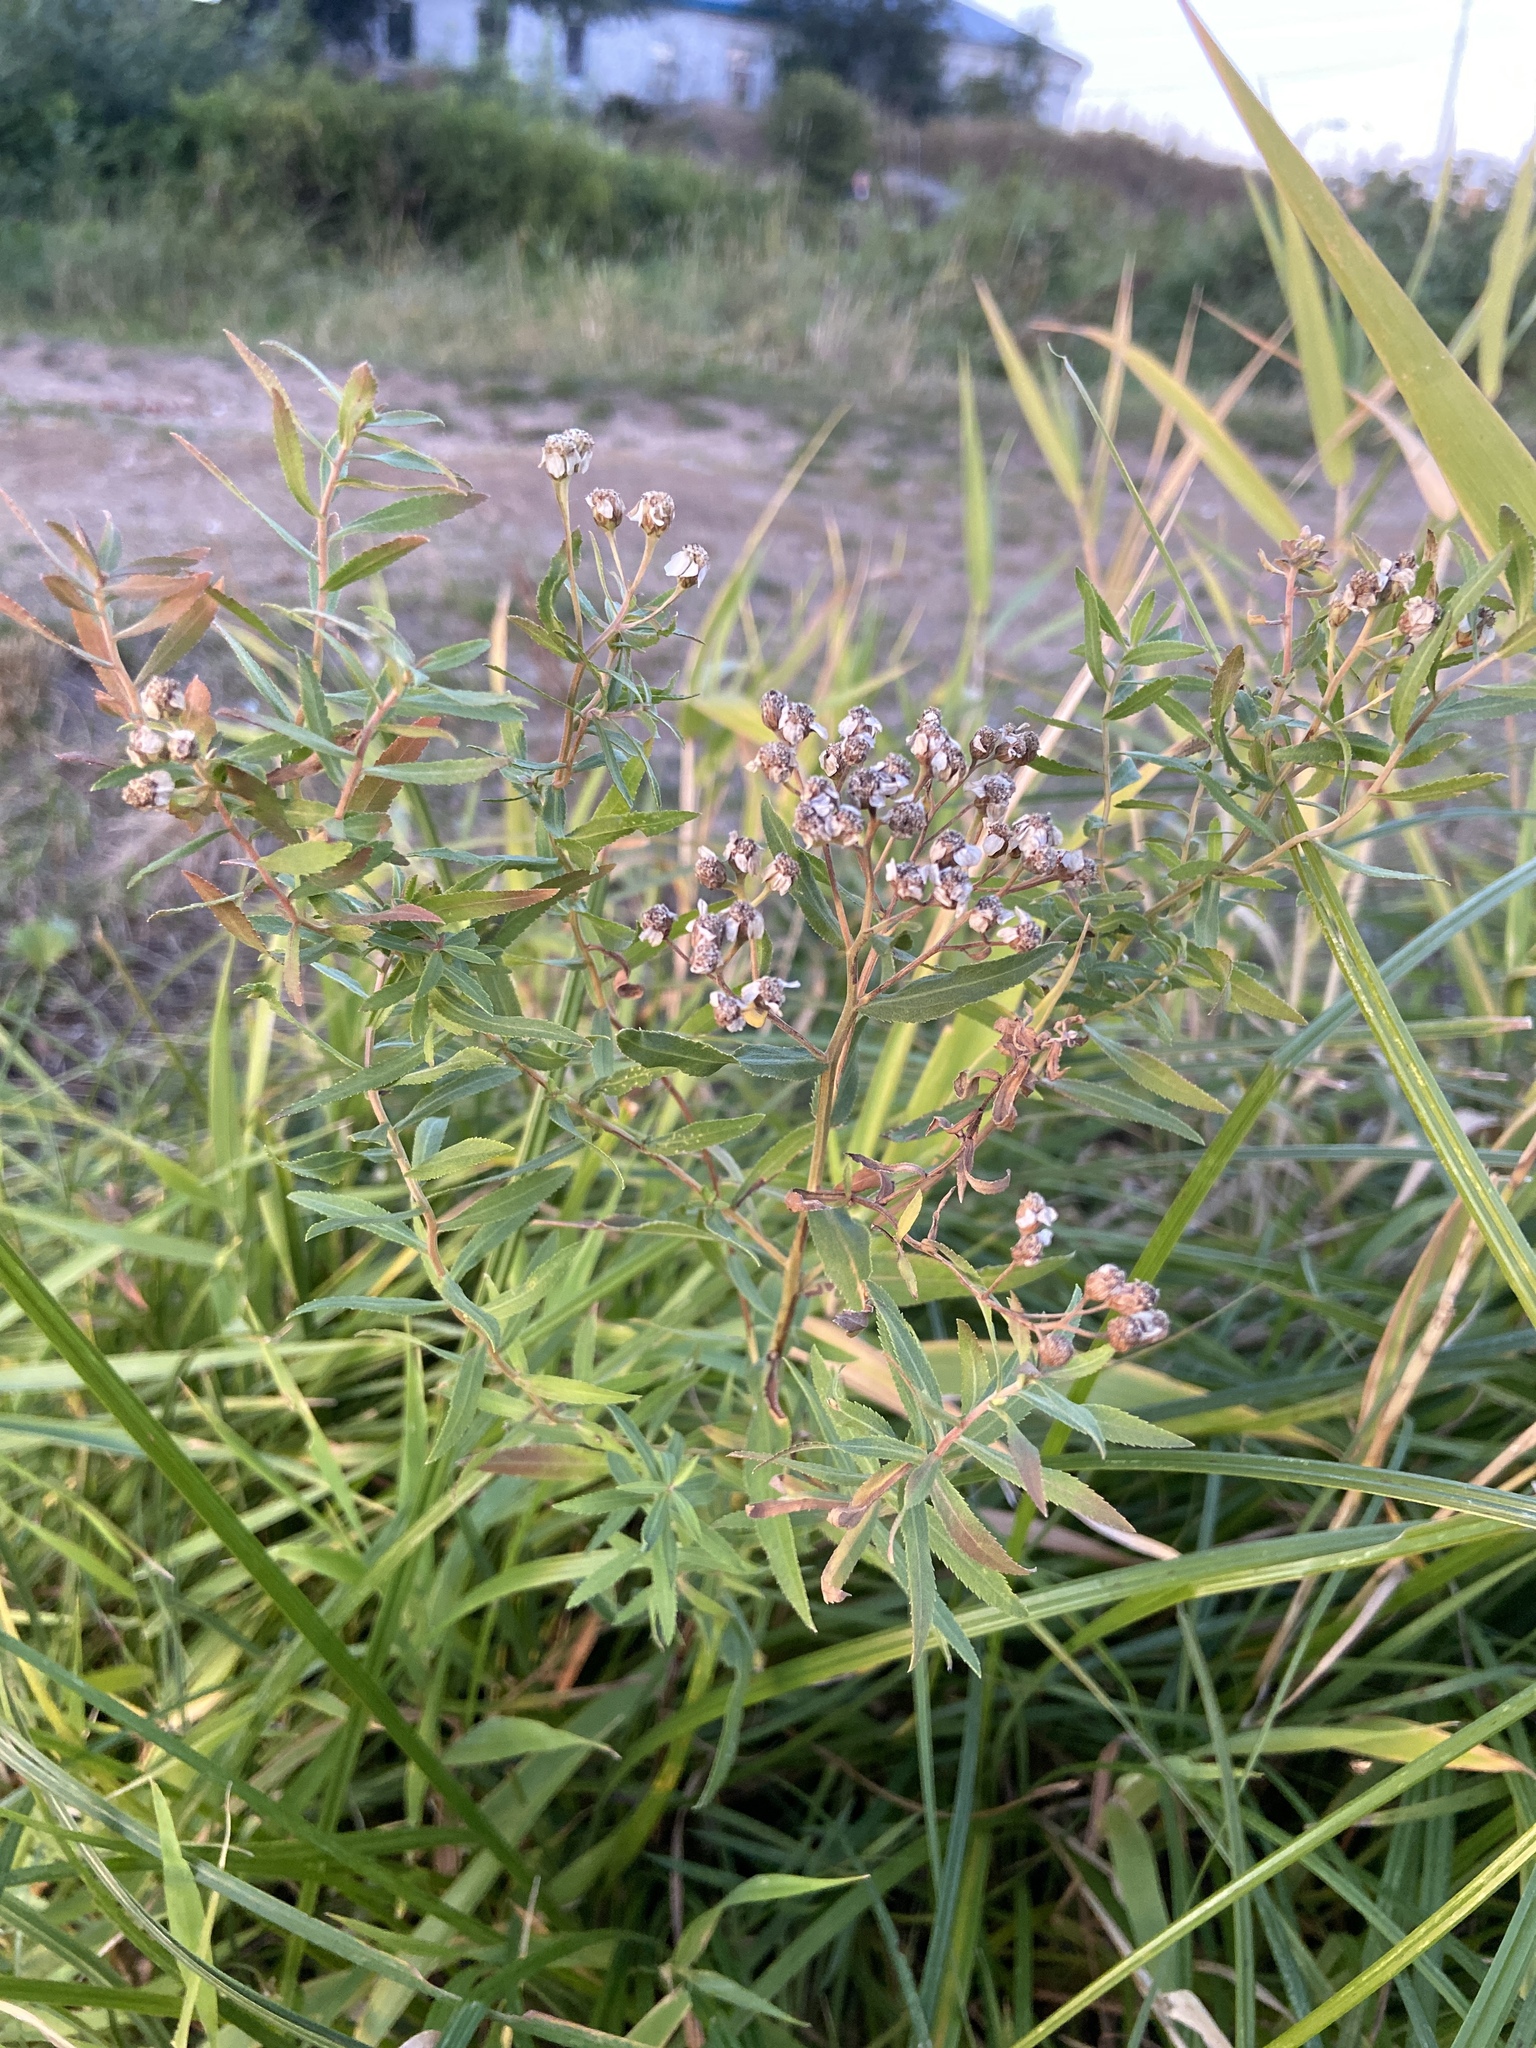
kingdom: Plantae
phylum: Tracheophyta
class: Magnoliopsida
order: Asterales
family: Asteraceae
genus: Achillea
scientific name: Achillea salicifolia
